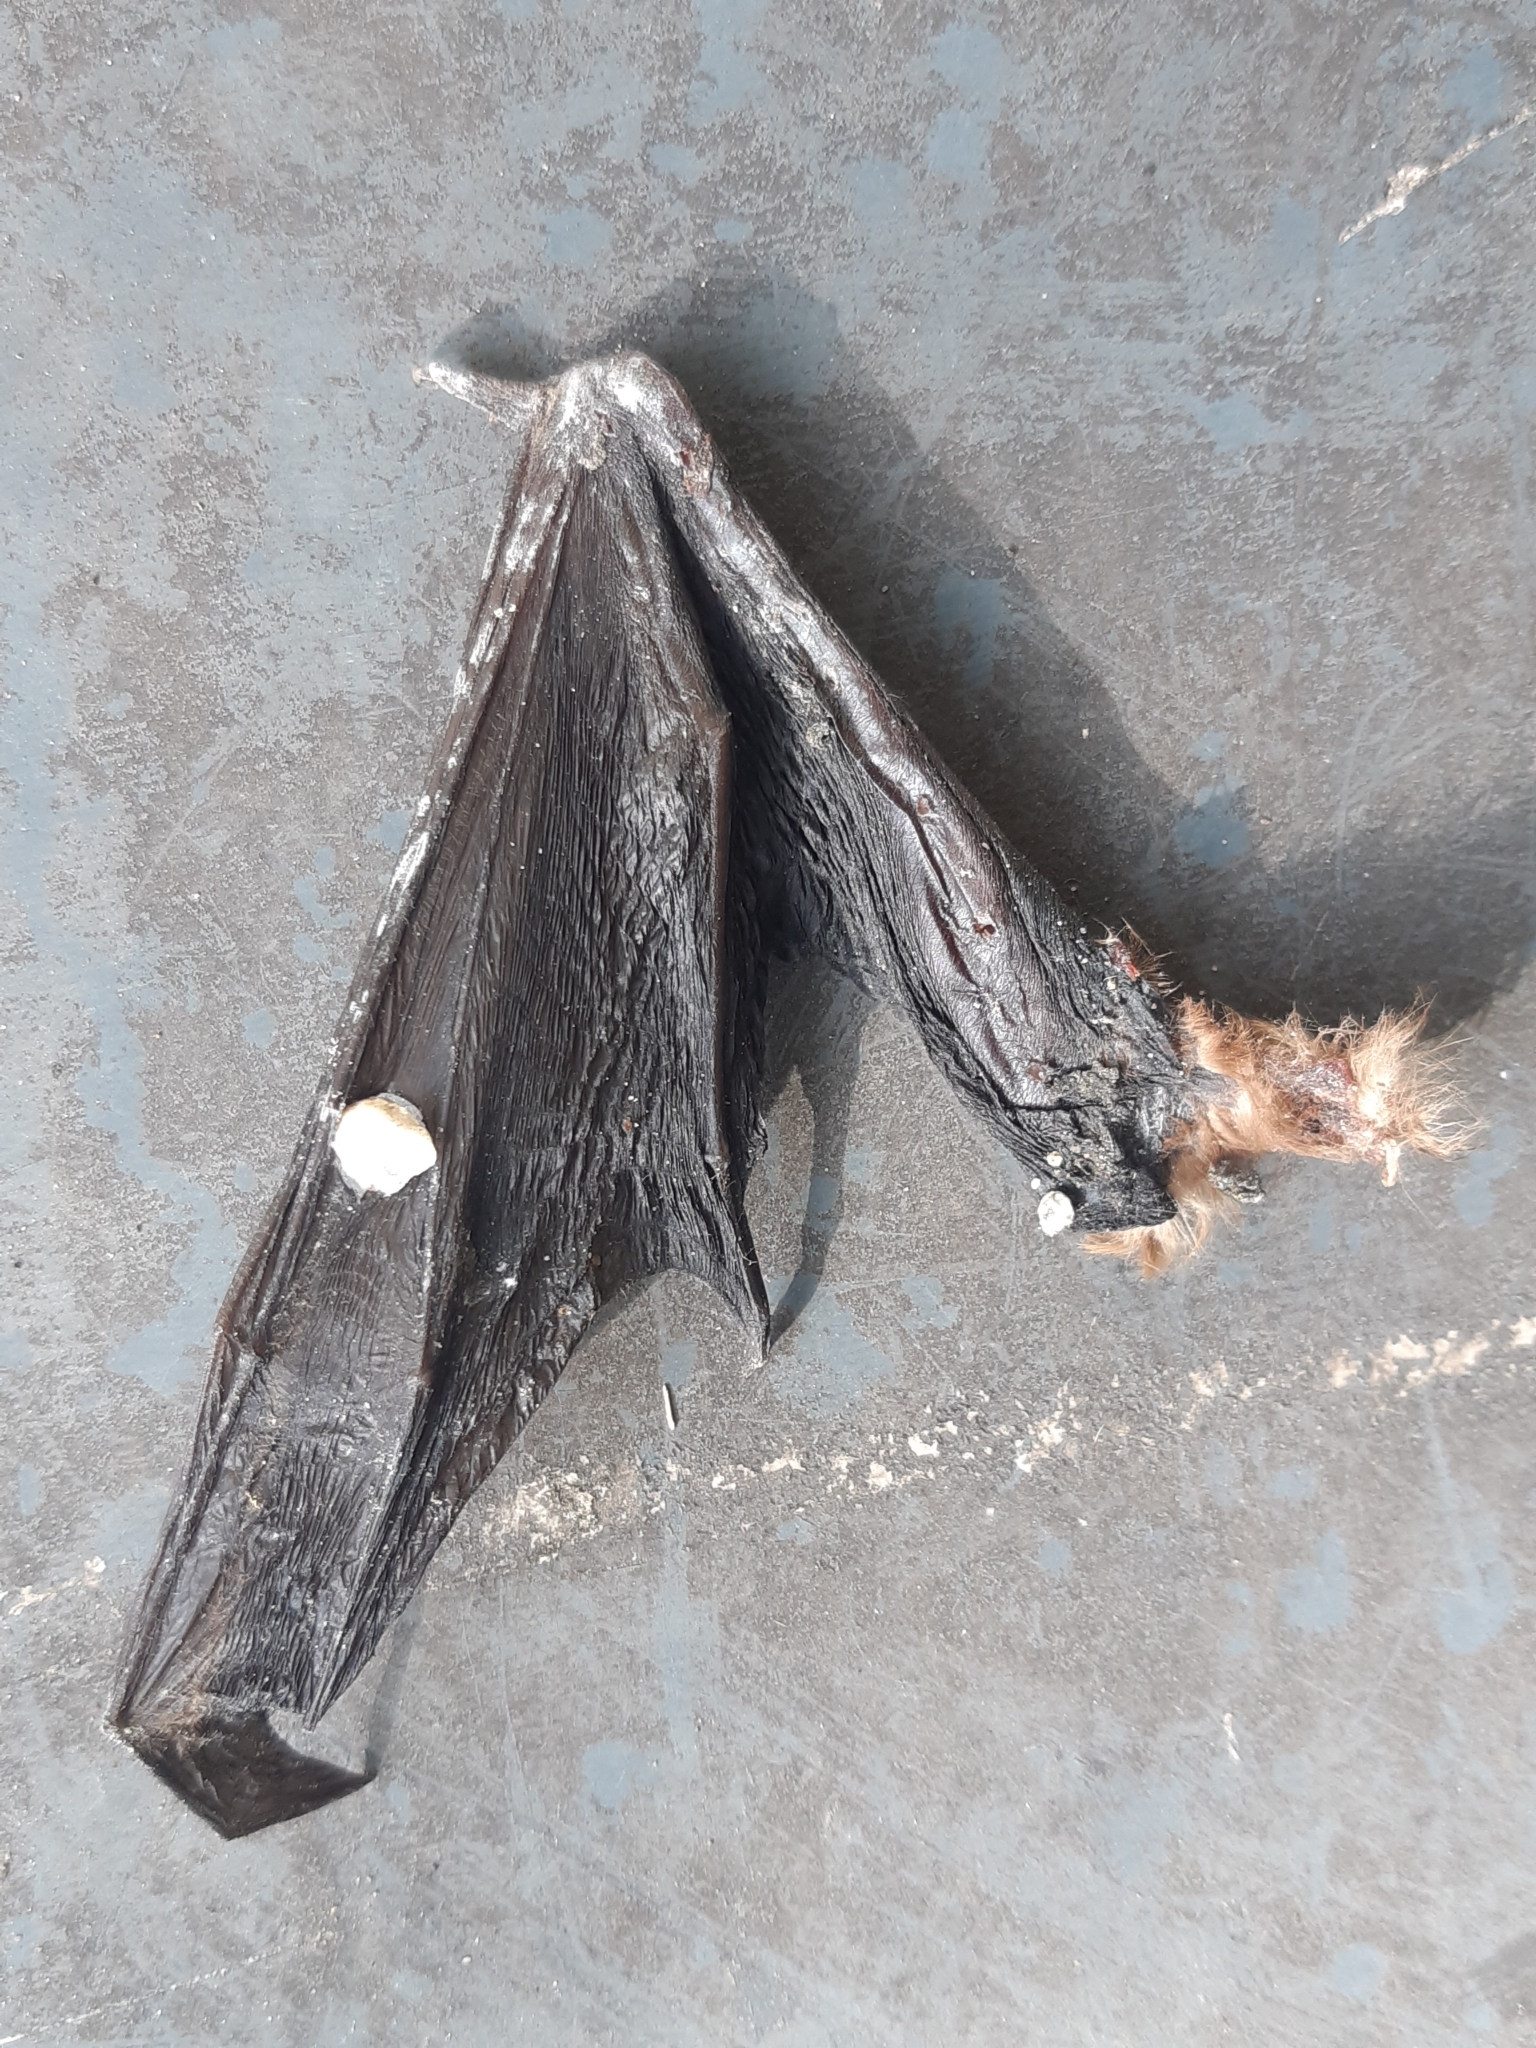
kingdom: Animalia
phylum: Chordata
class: Mammalia
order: Chiroptera
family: Vespertilionidae
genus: Nyctalus
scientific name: Nyctalus noctula
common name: Noctule
